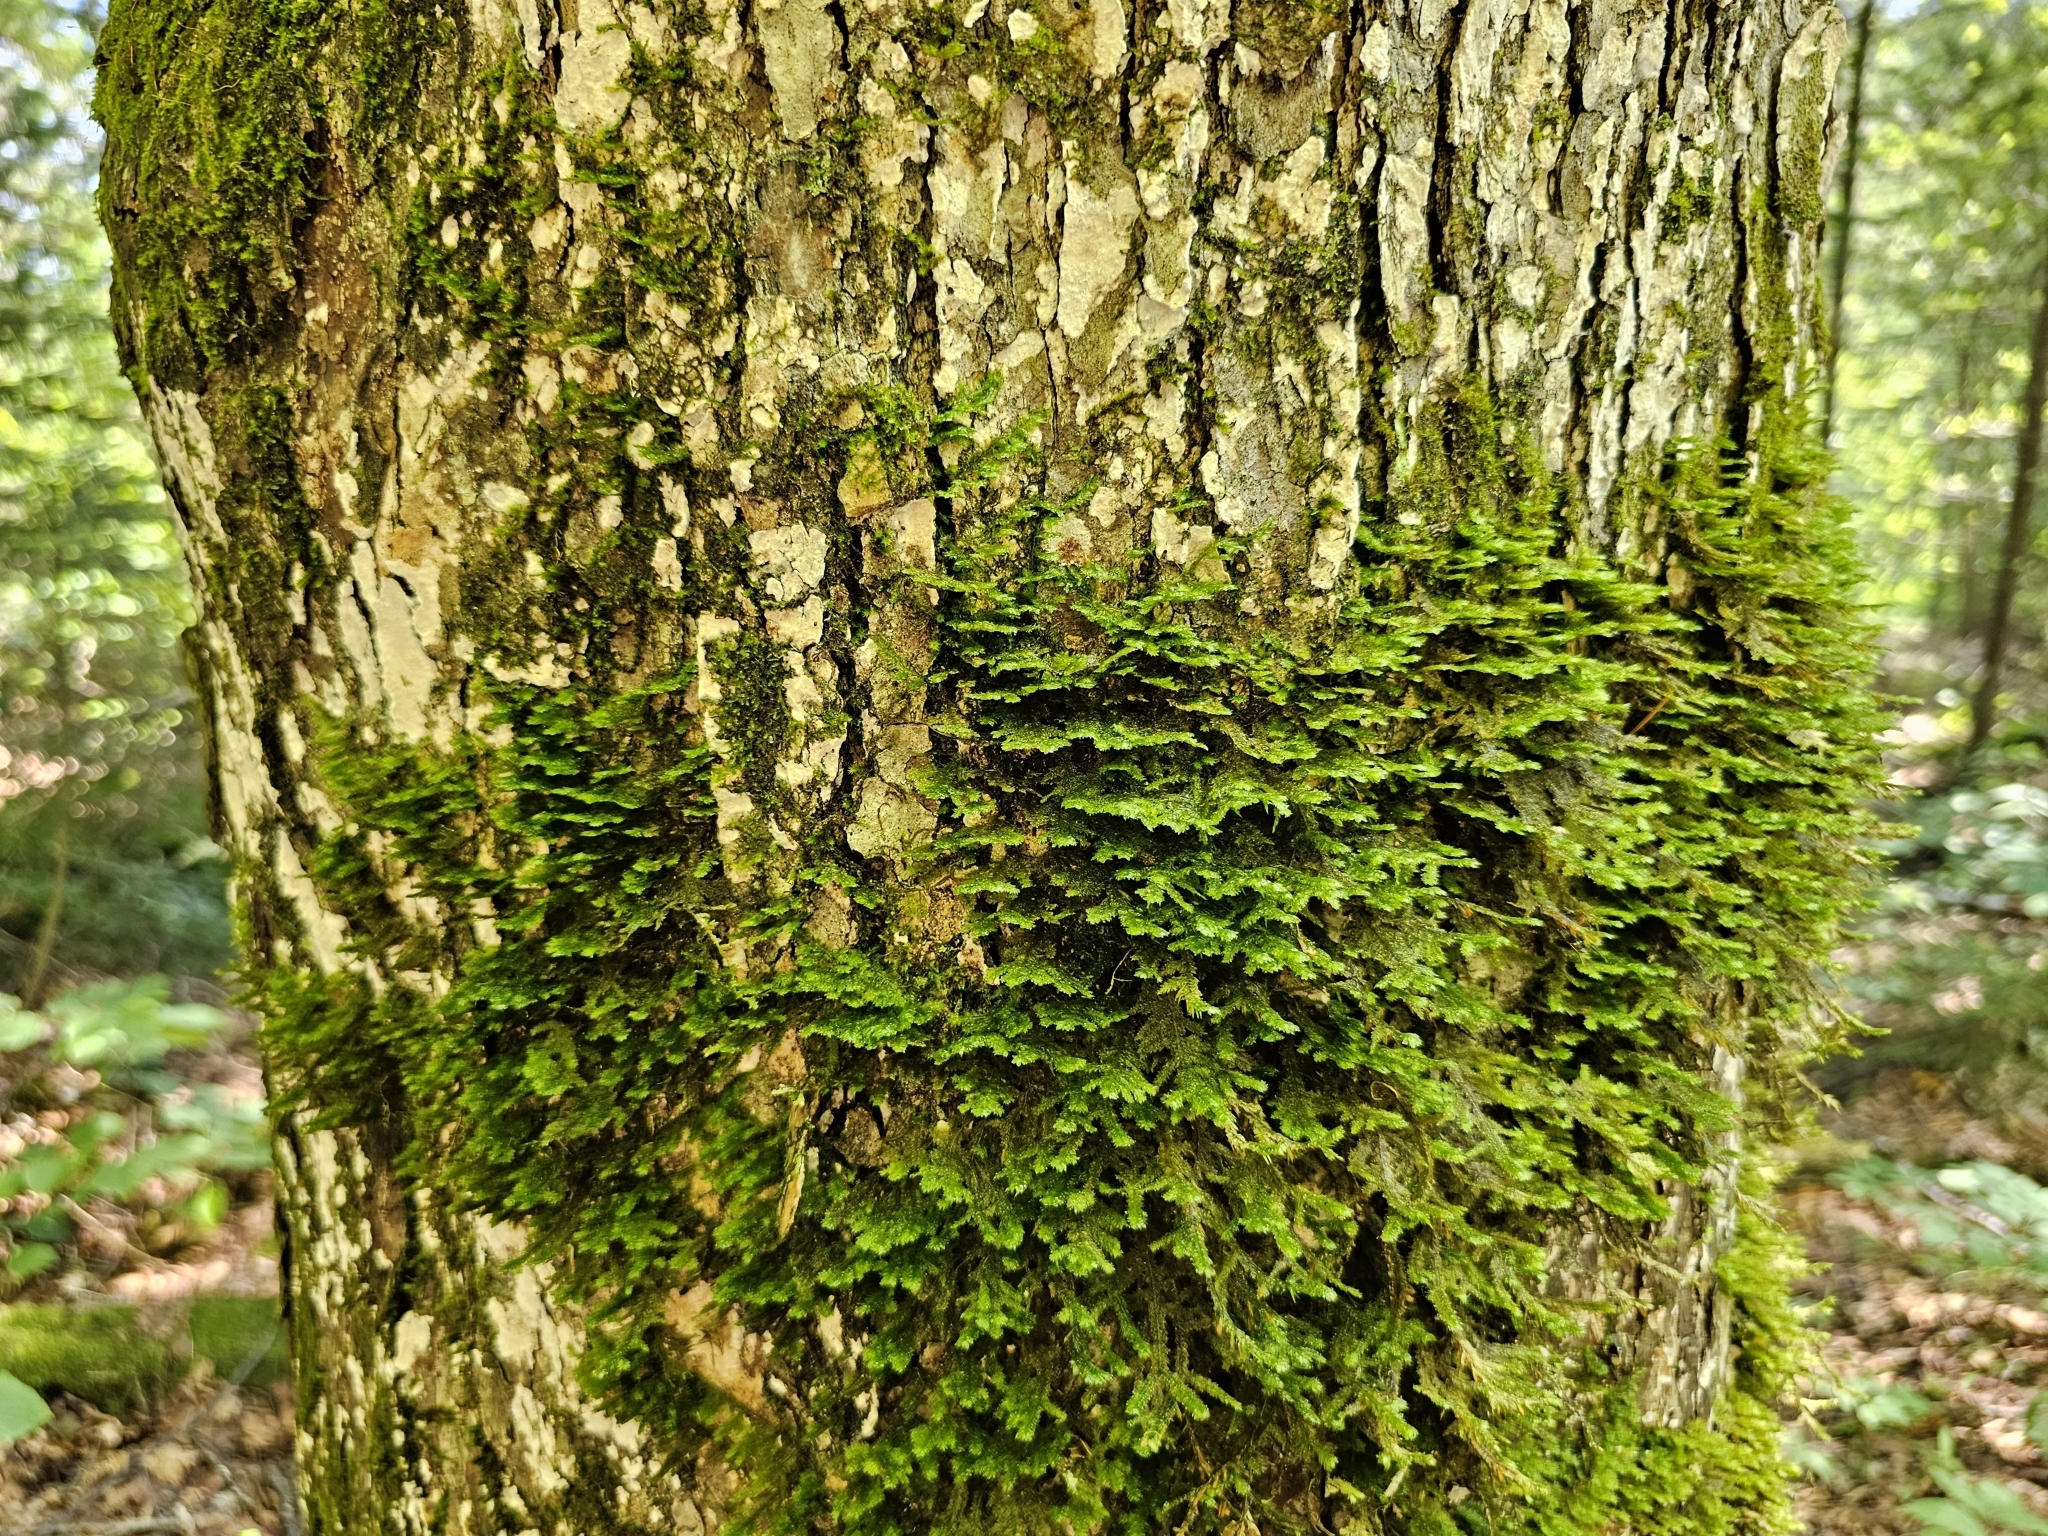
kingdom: Plantae
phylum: Bryophyta
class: Bryopsida
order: Hypnales
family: Neckeraceae
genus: Neckera
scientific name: Neckera pennata
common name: Feathery neckera
